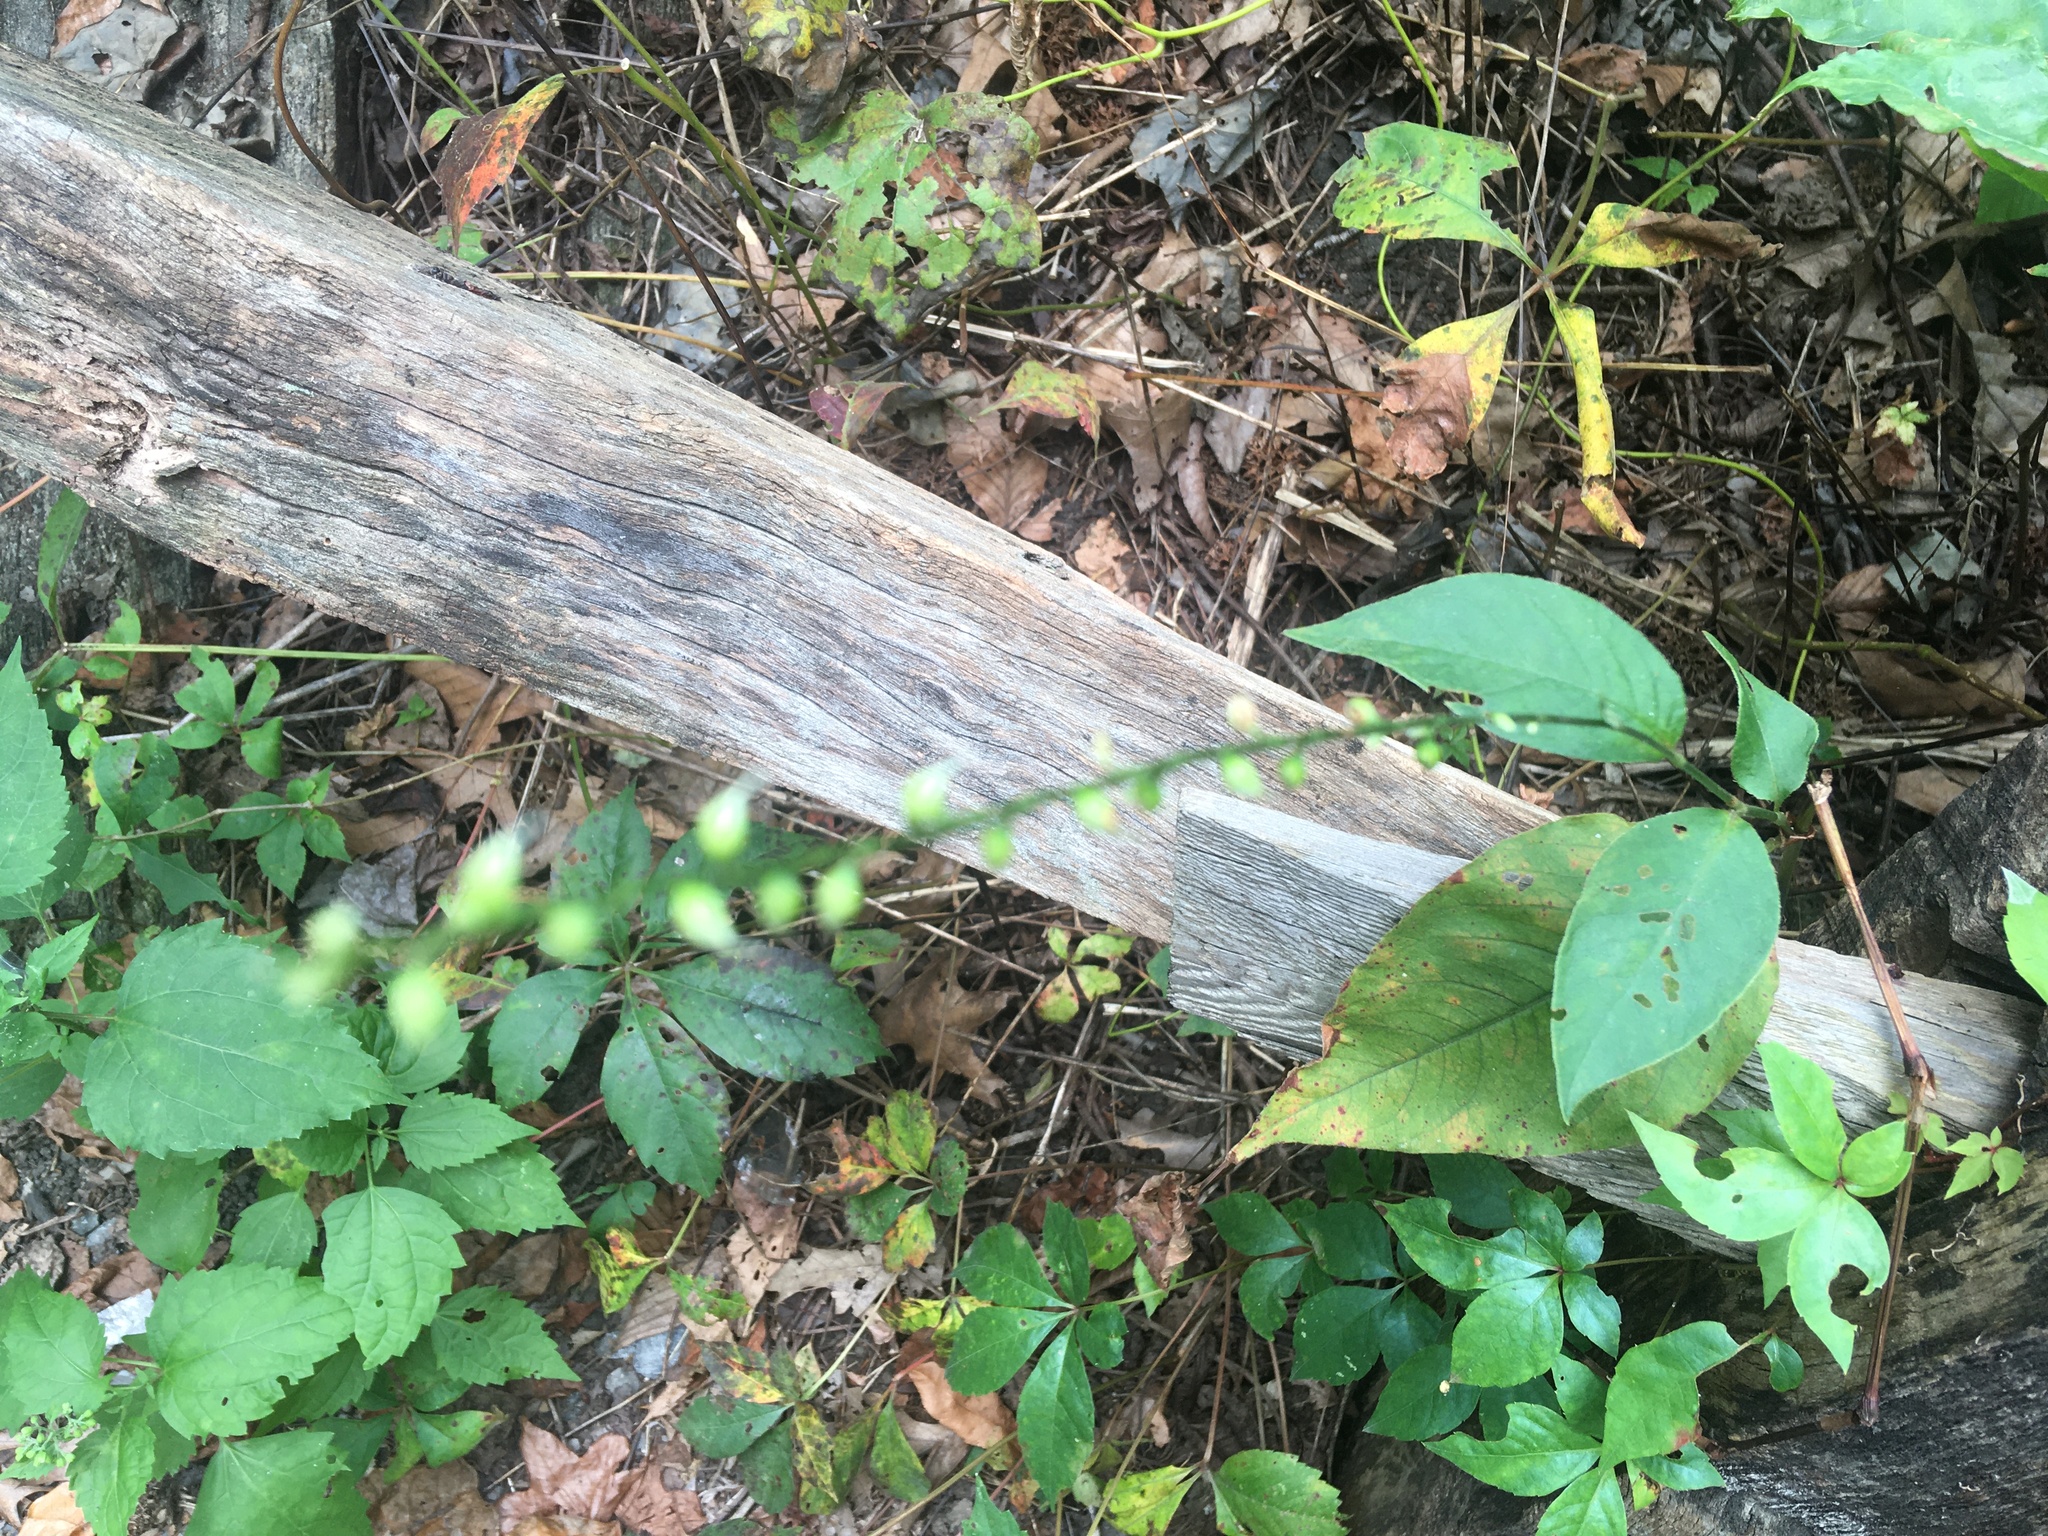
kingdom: Plantae
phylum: Tracheophyta
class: Magnoliopsida
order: Caryophyllales
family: Polygonaceae
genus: Persicaria
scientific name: Persicaria virginiana
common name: Jumpseed
